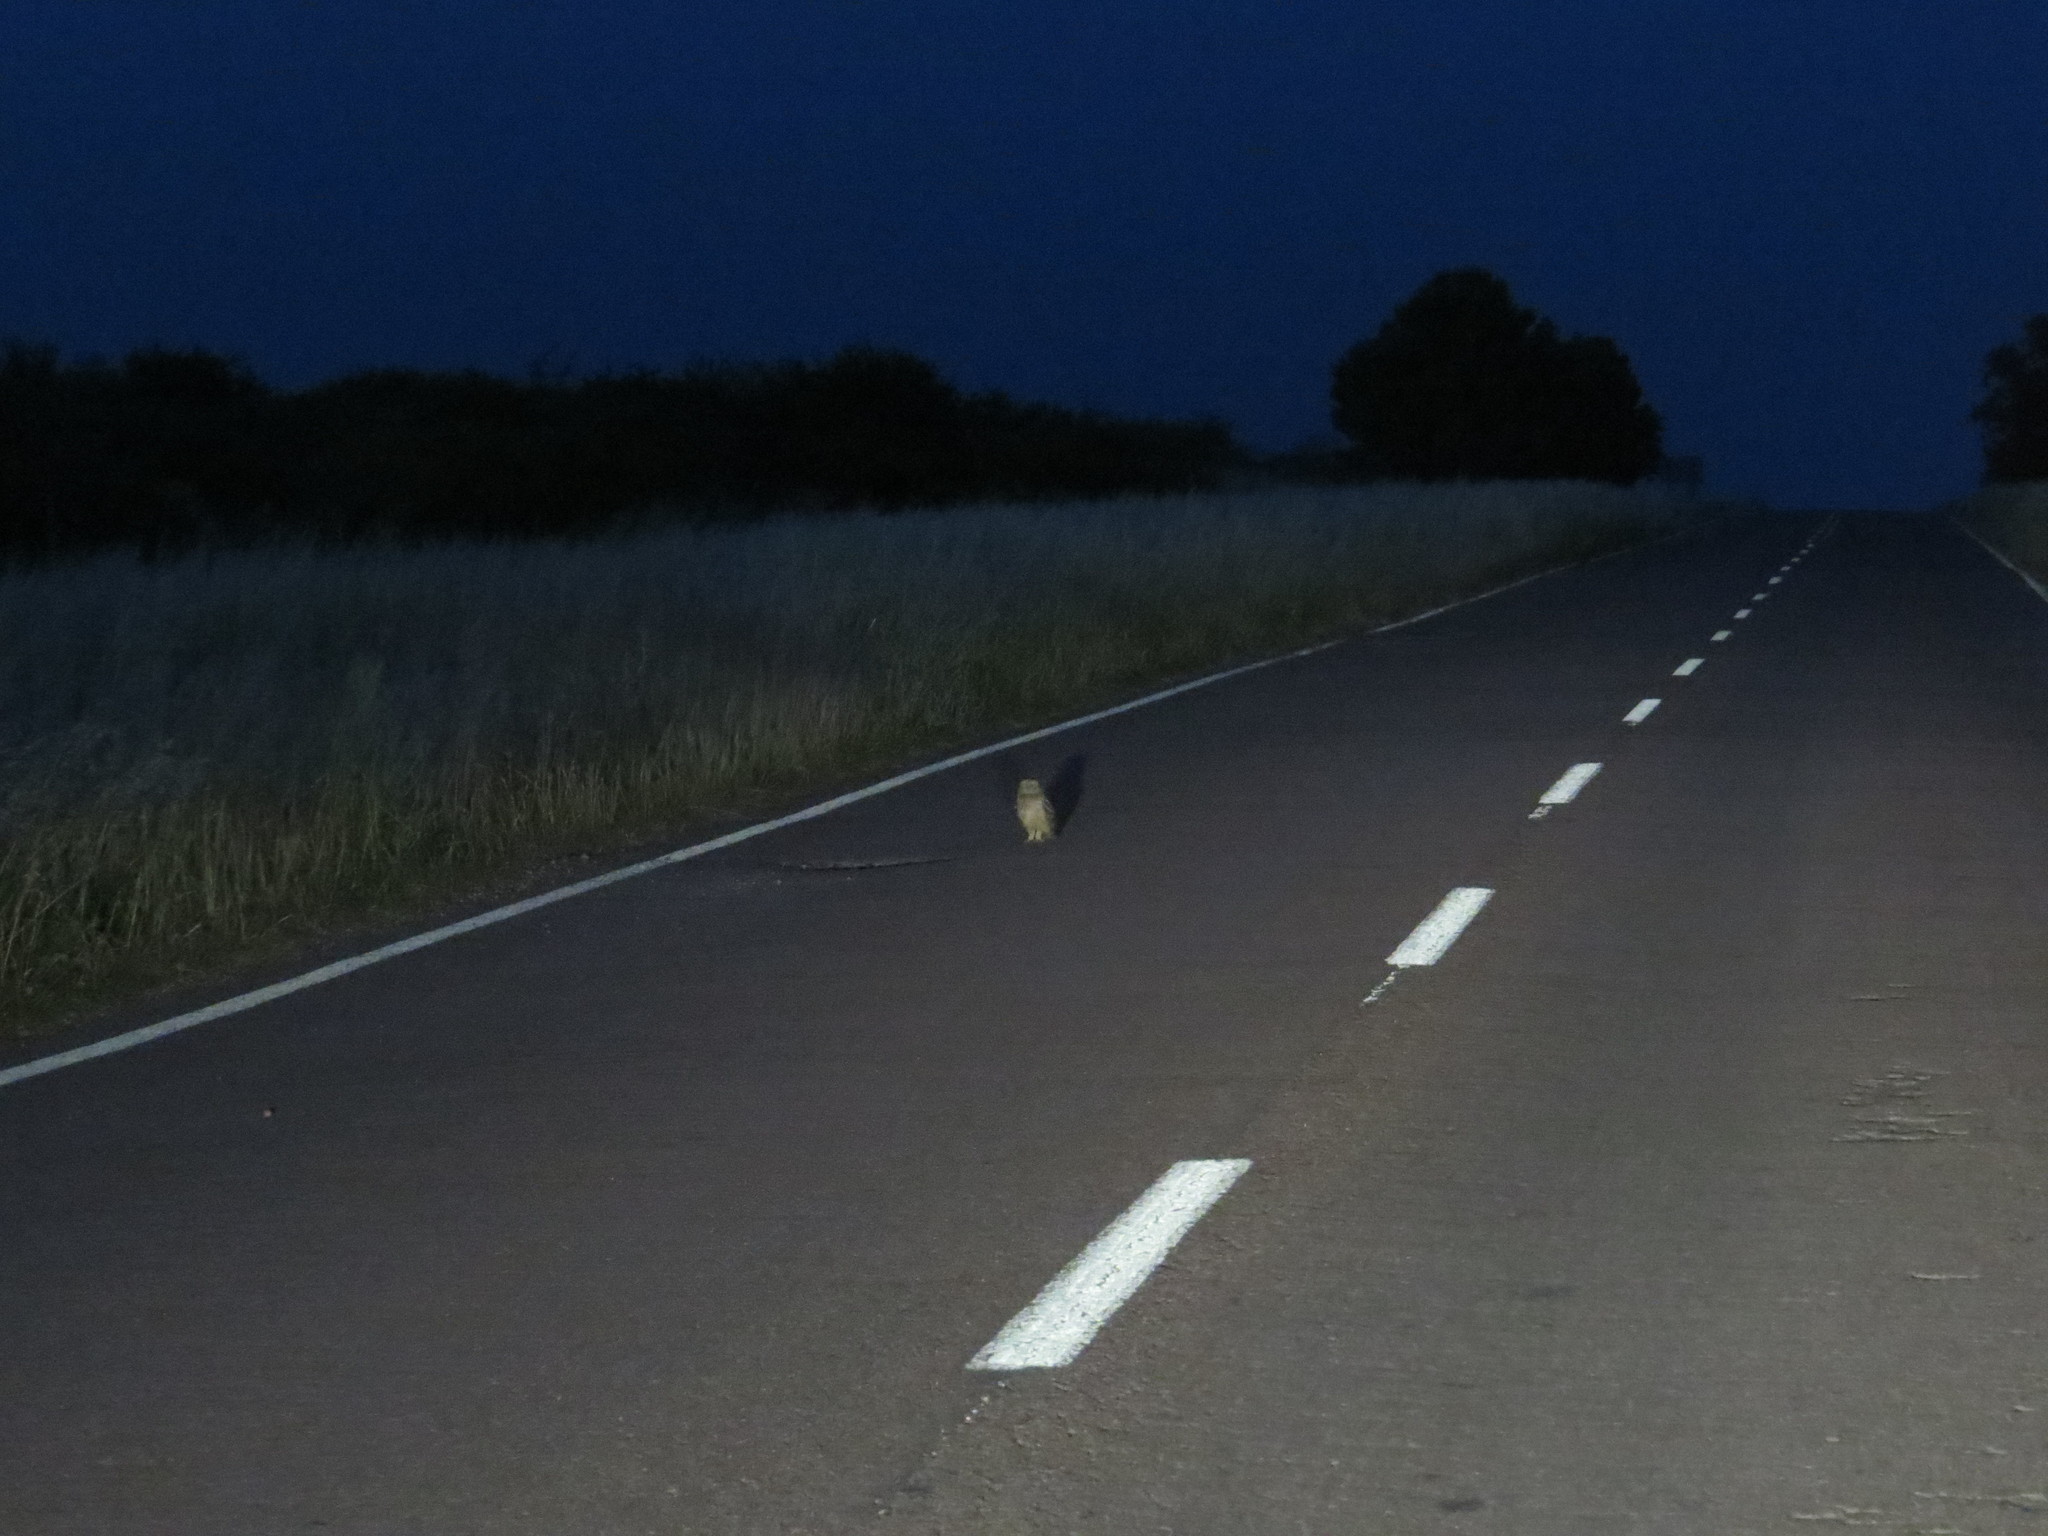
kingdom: Animalia
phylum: Chordata
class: Aves
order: Strigiformes
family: Strigidae
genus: Asio
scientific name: Asio flammeus
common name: Short-eared owl
